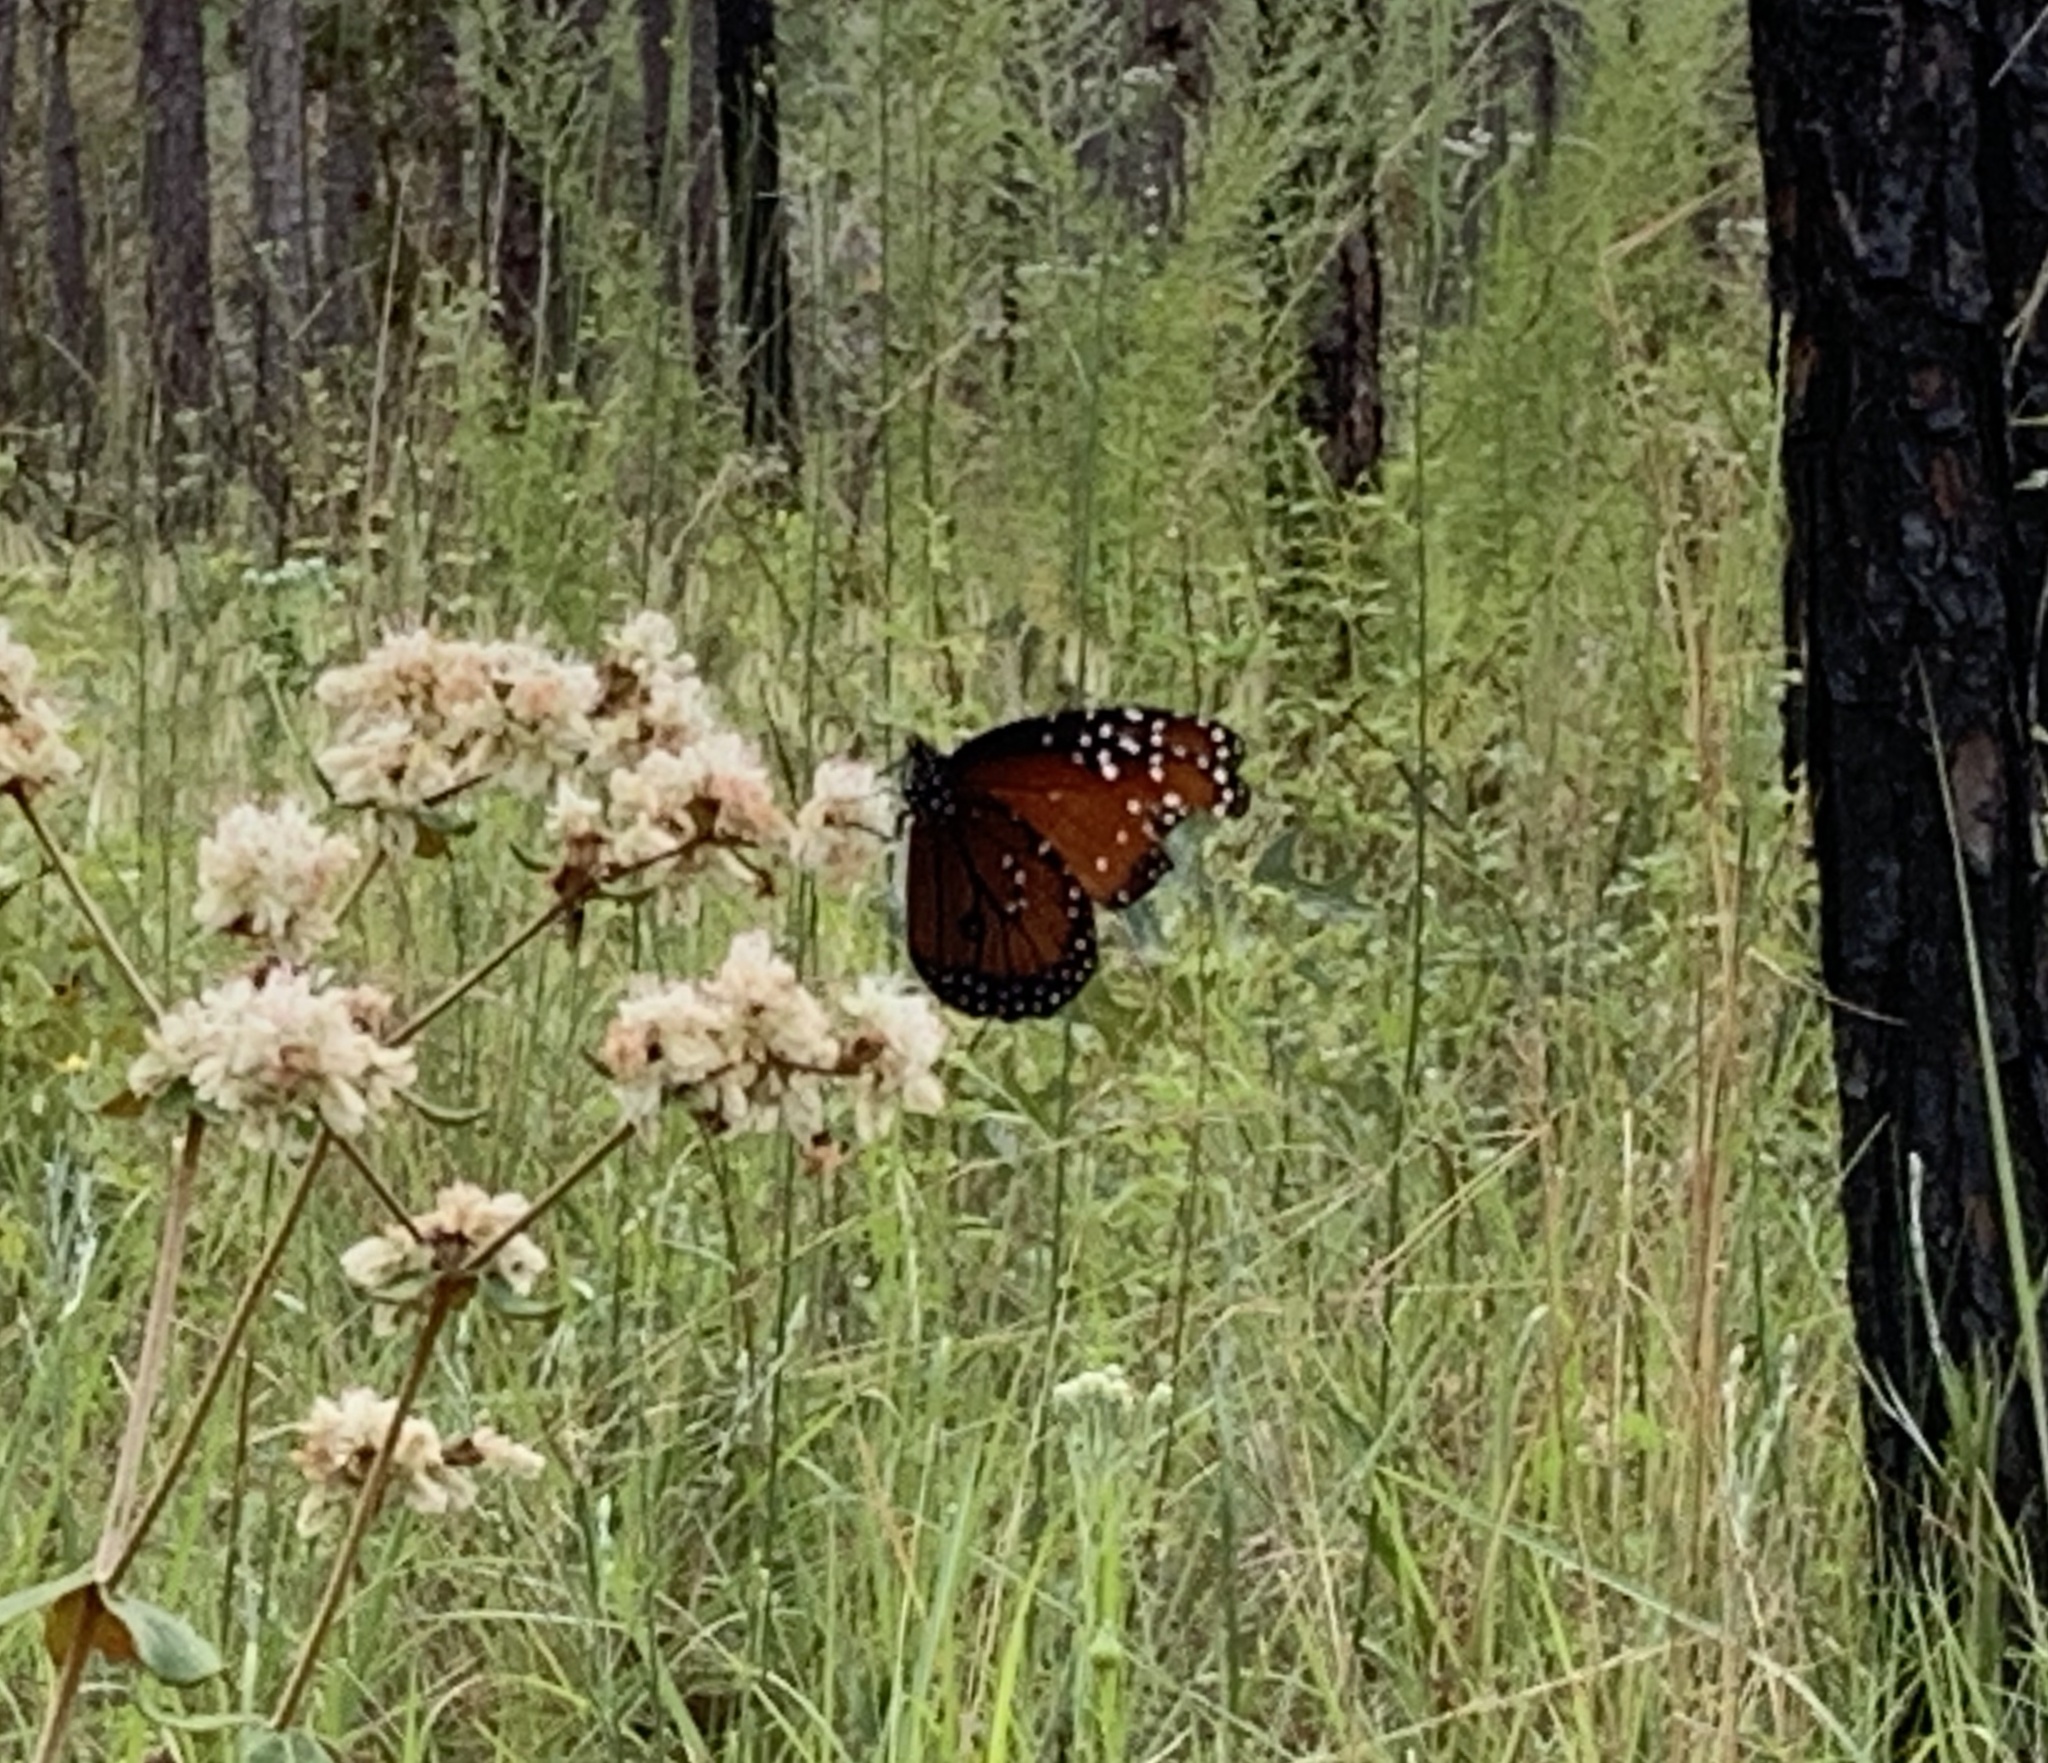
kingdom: Animalia
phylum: Arthropoda
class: Insecta
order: Lepidoptera
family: Nymphalidae
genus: Danaus
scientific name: Danaus gilippus
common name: Queen
